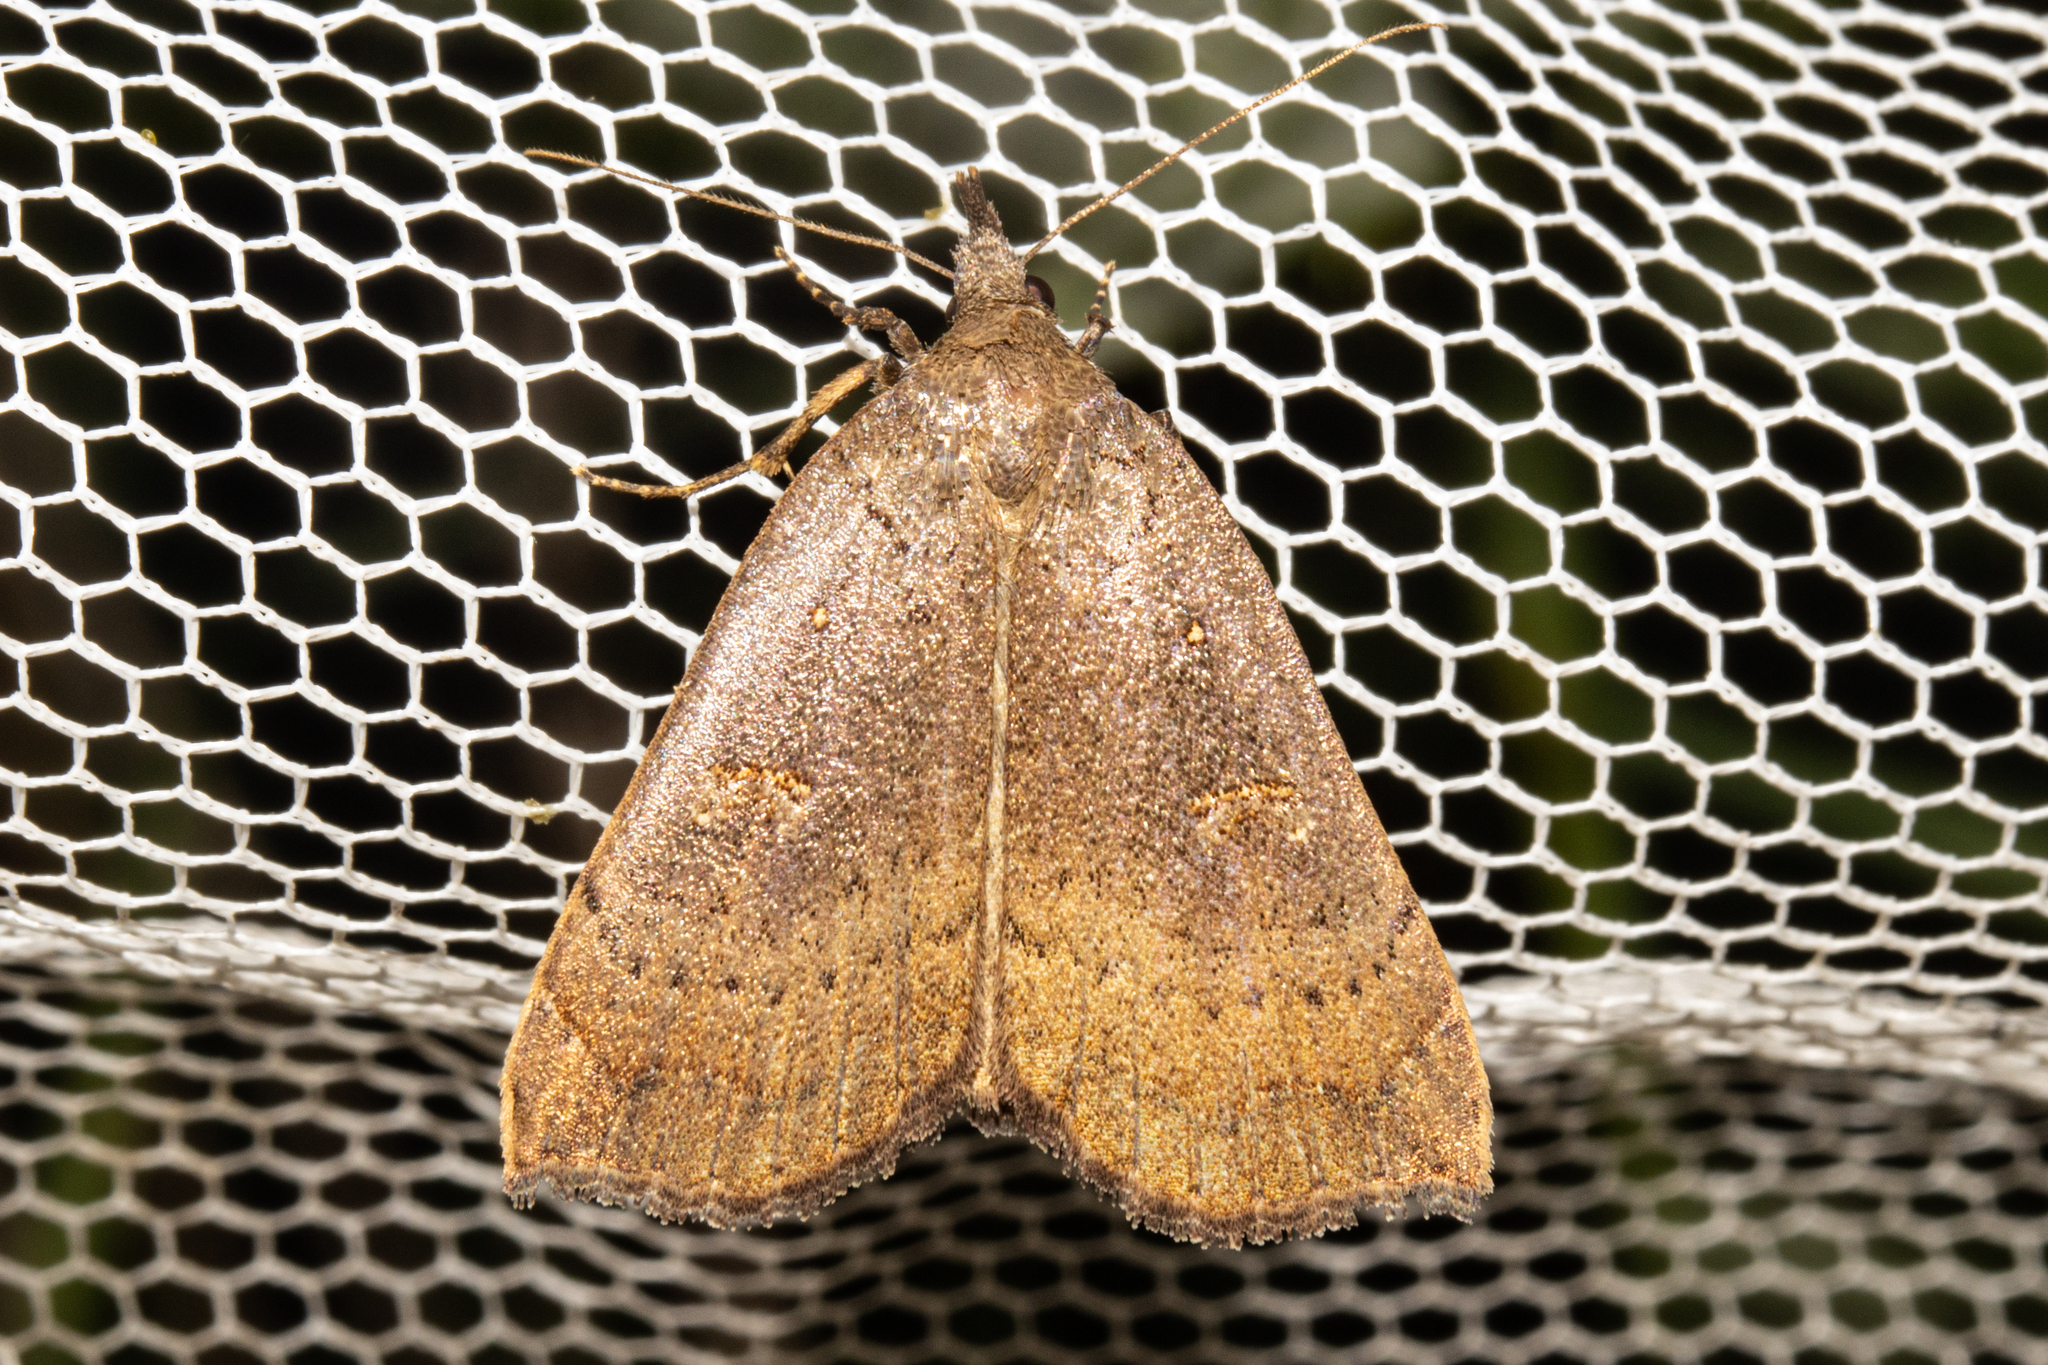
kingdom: Animalia
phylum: Arthropoda
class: Insecta
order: Lepidoptera
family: Erebidae
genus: Rhapsa
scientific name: Rhapsa scotosialis
